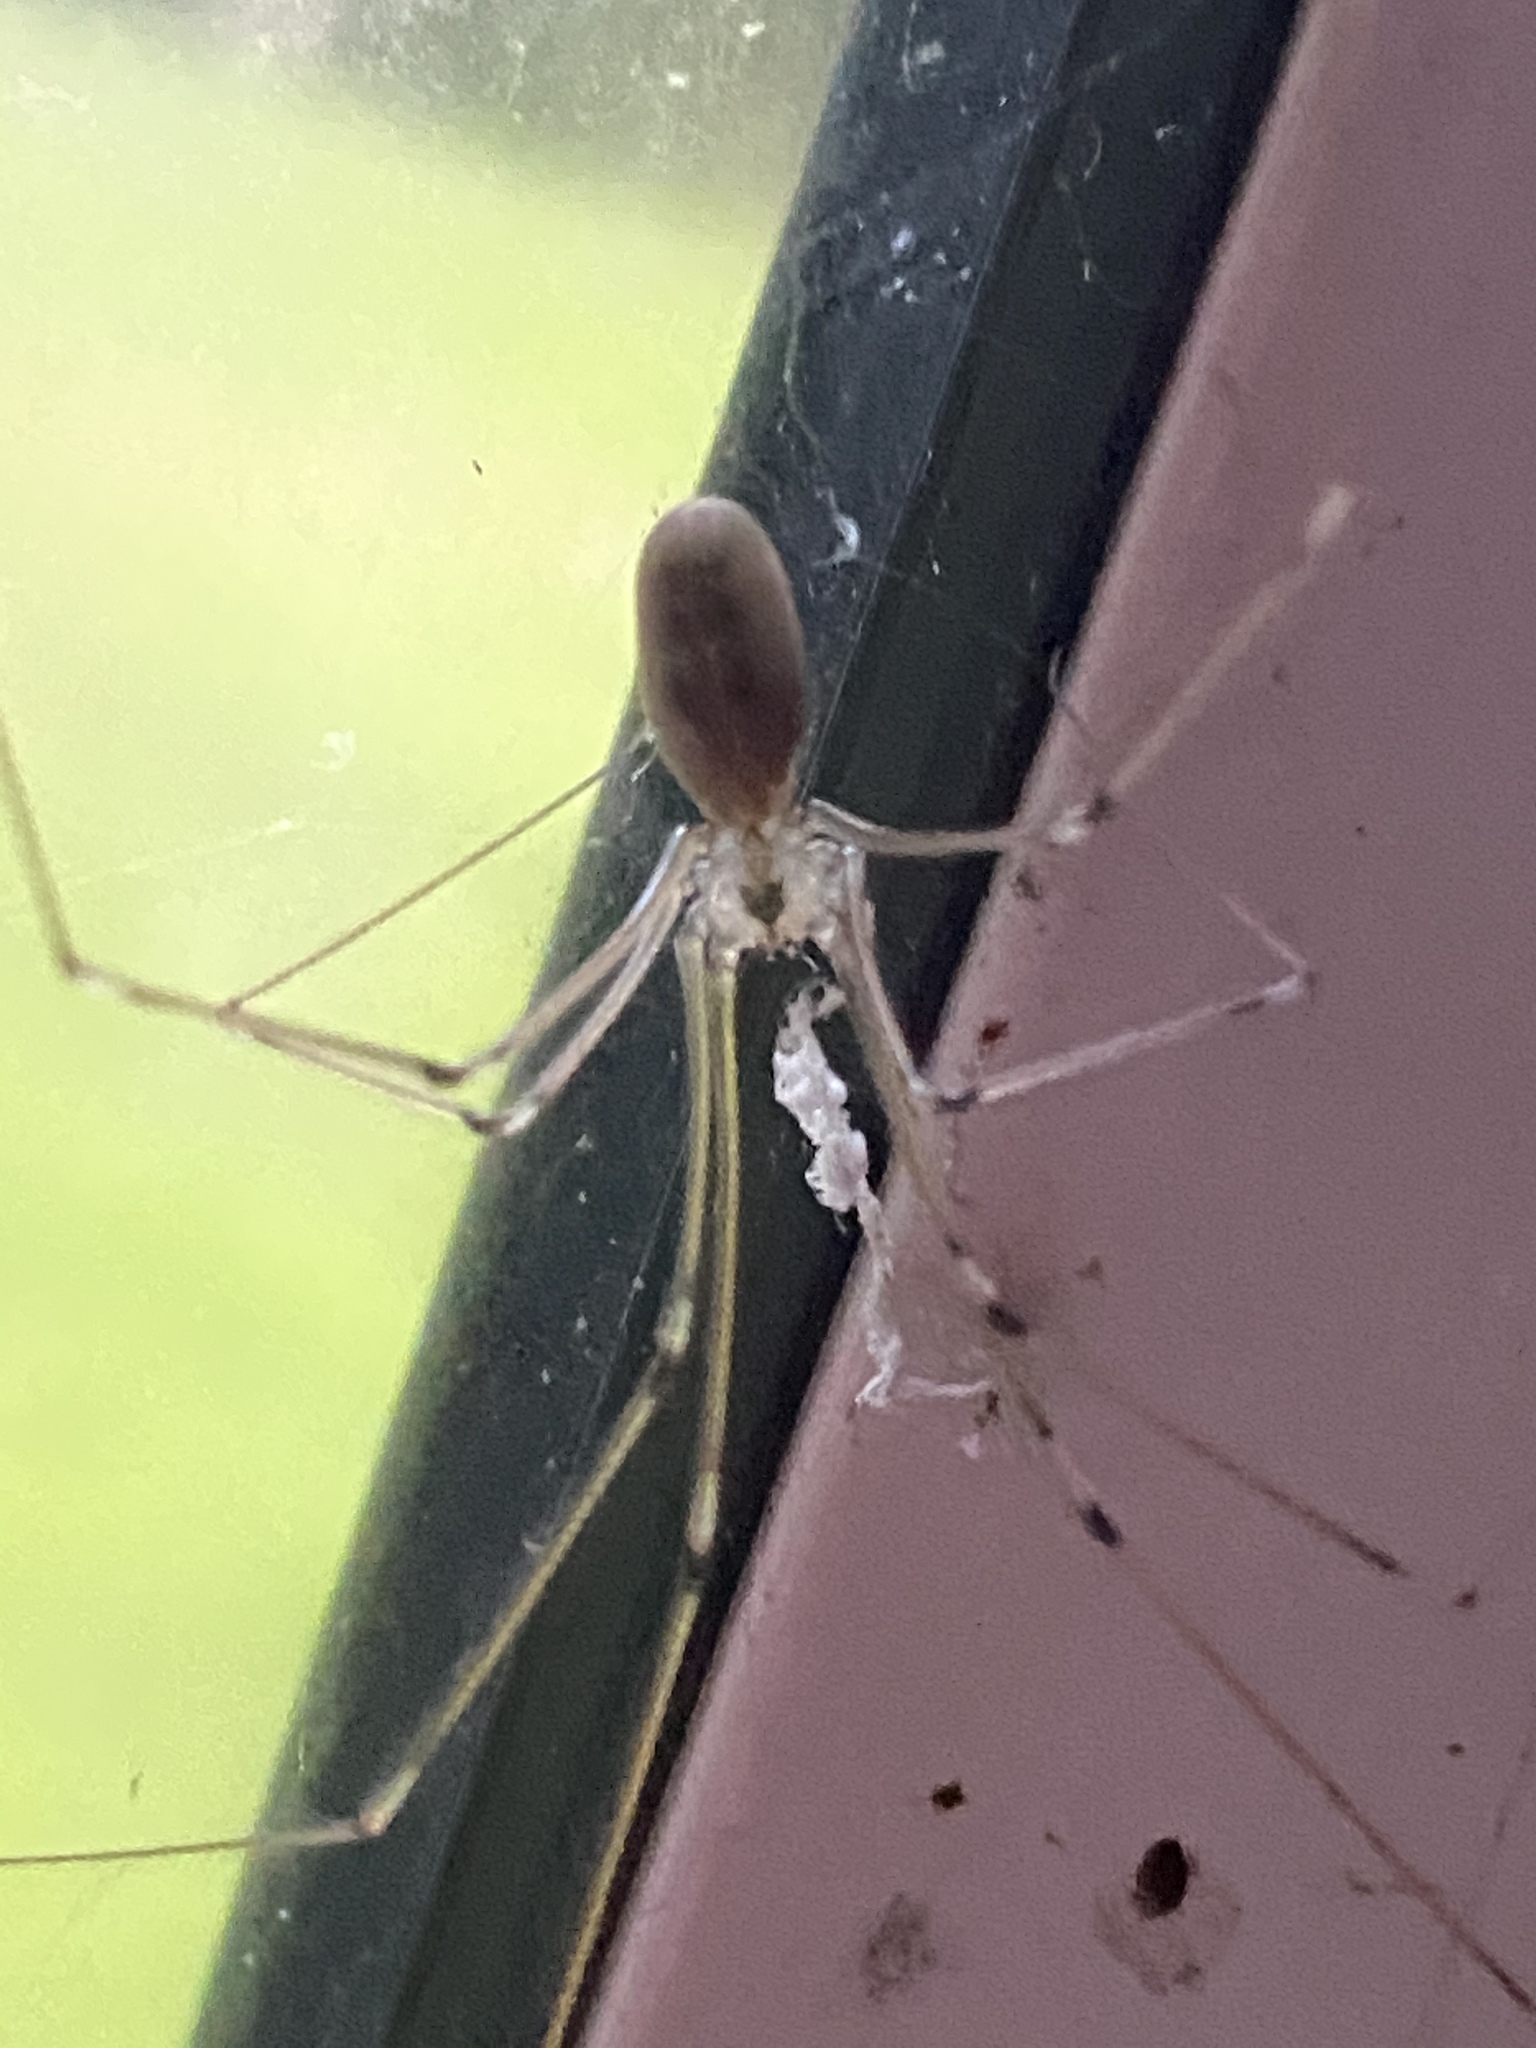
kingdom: Animalia
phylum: Arthropoda
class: Arachnida
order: Araneae
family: Pholcidae
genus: Pholcus
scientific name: Pholcus phalangioides
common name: Longbodied cellar spider
